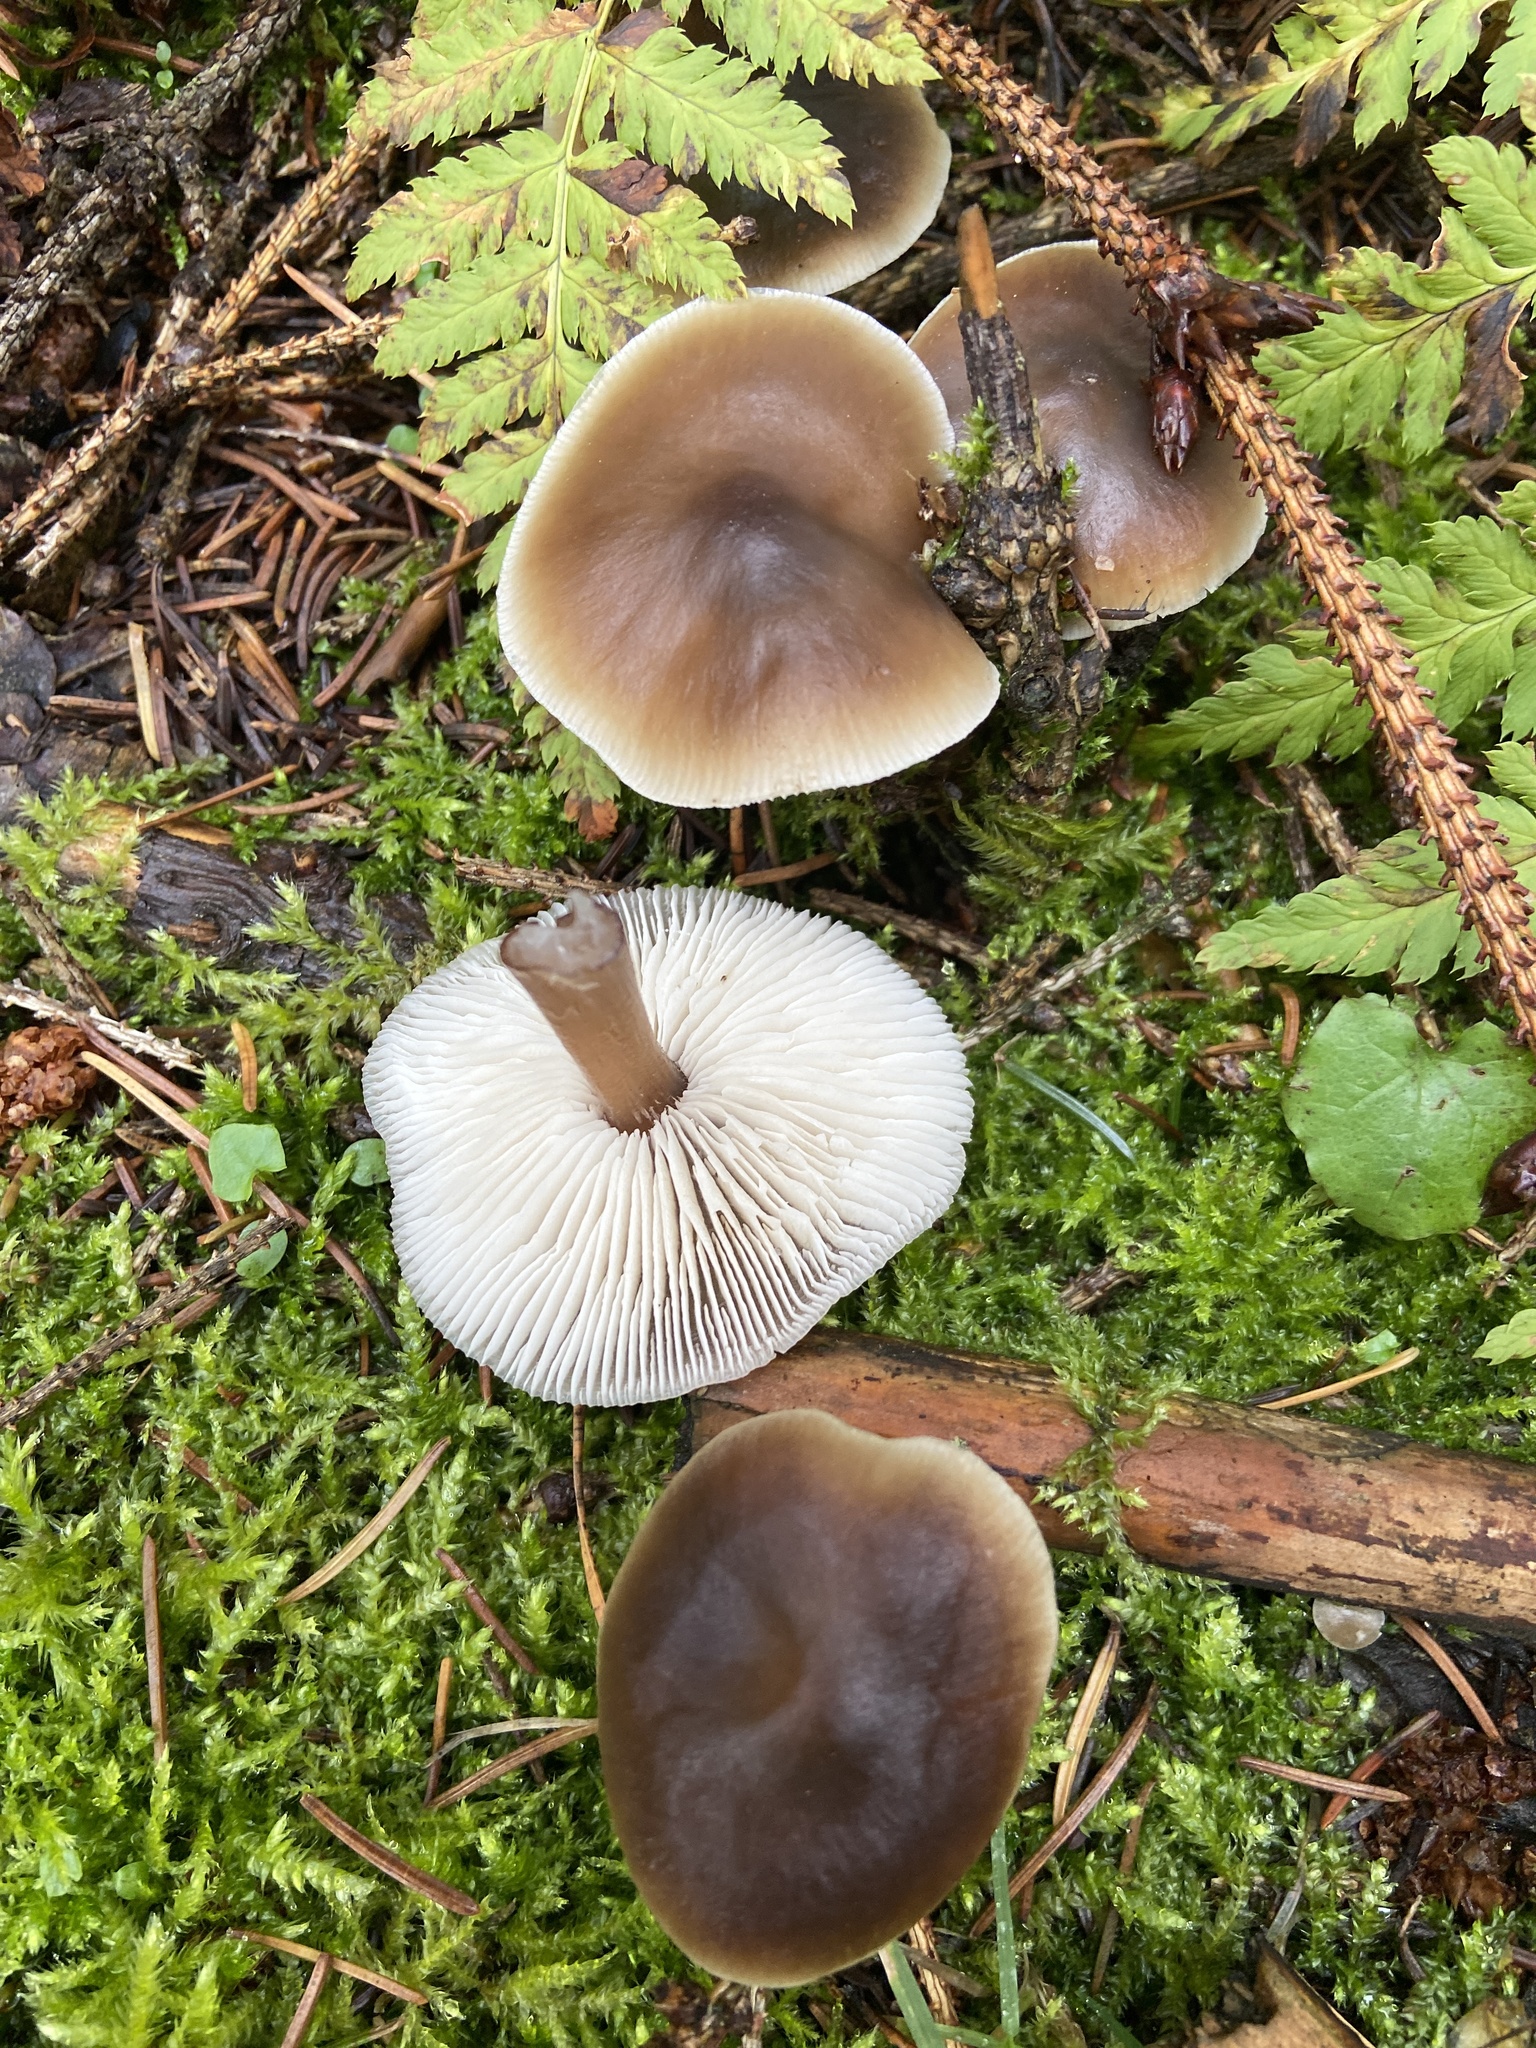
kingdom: Fungi
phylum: Basidiomycota
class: Agaricomycetes
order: Agaricales
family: Omphalotaceae
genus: Rhodocollybia
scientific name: Rhodocollybia butyracea
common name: Butter cap
